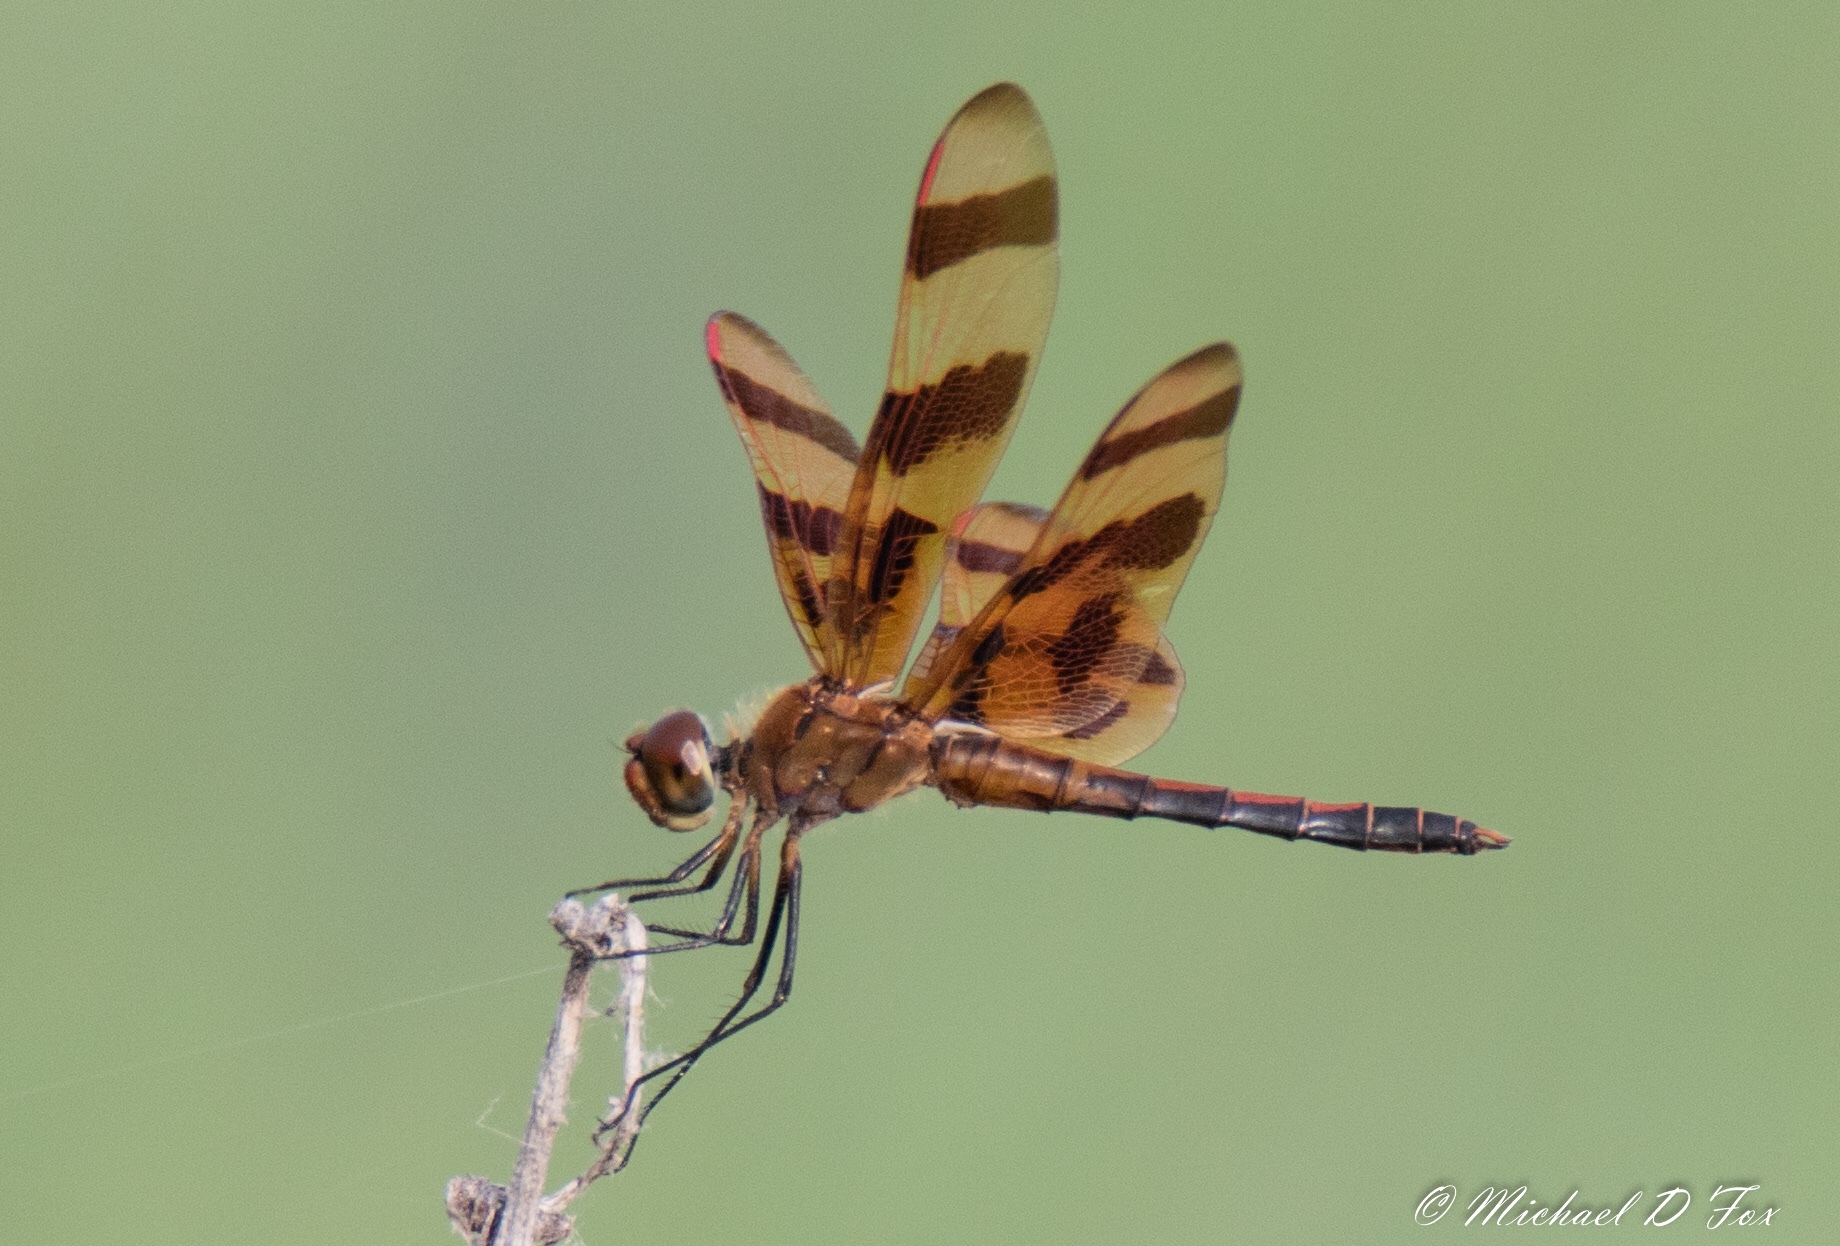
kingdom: Animalia
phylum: Arthropoda
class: Insecta
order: Odonata
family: Libellulidae
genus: Celithemis
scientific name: Celithemis eponina
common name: Halloween pennant
